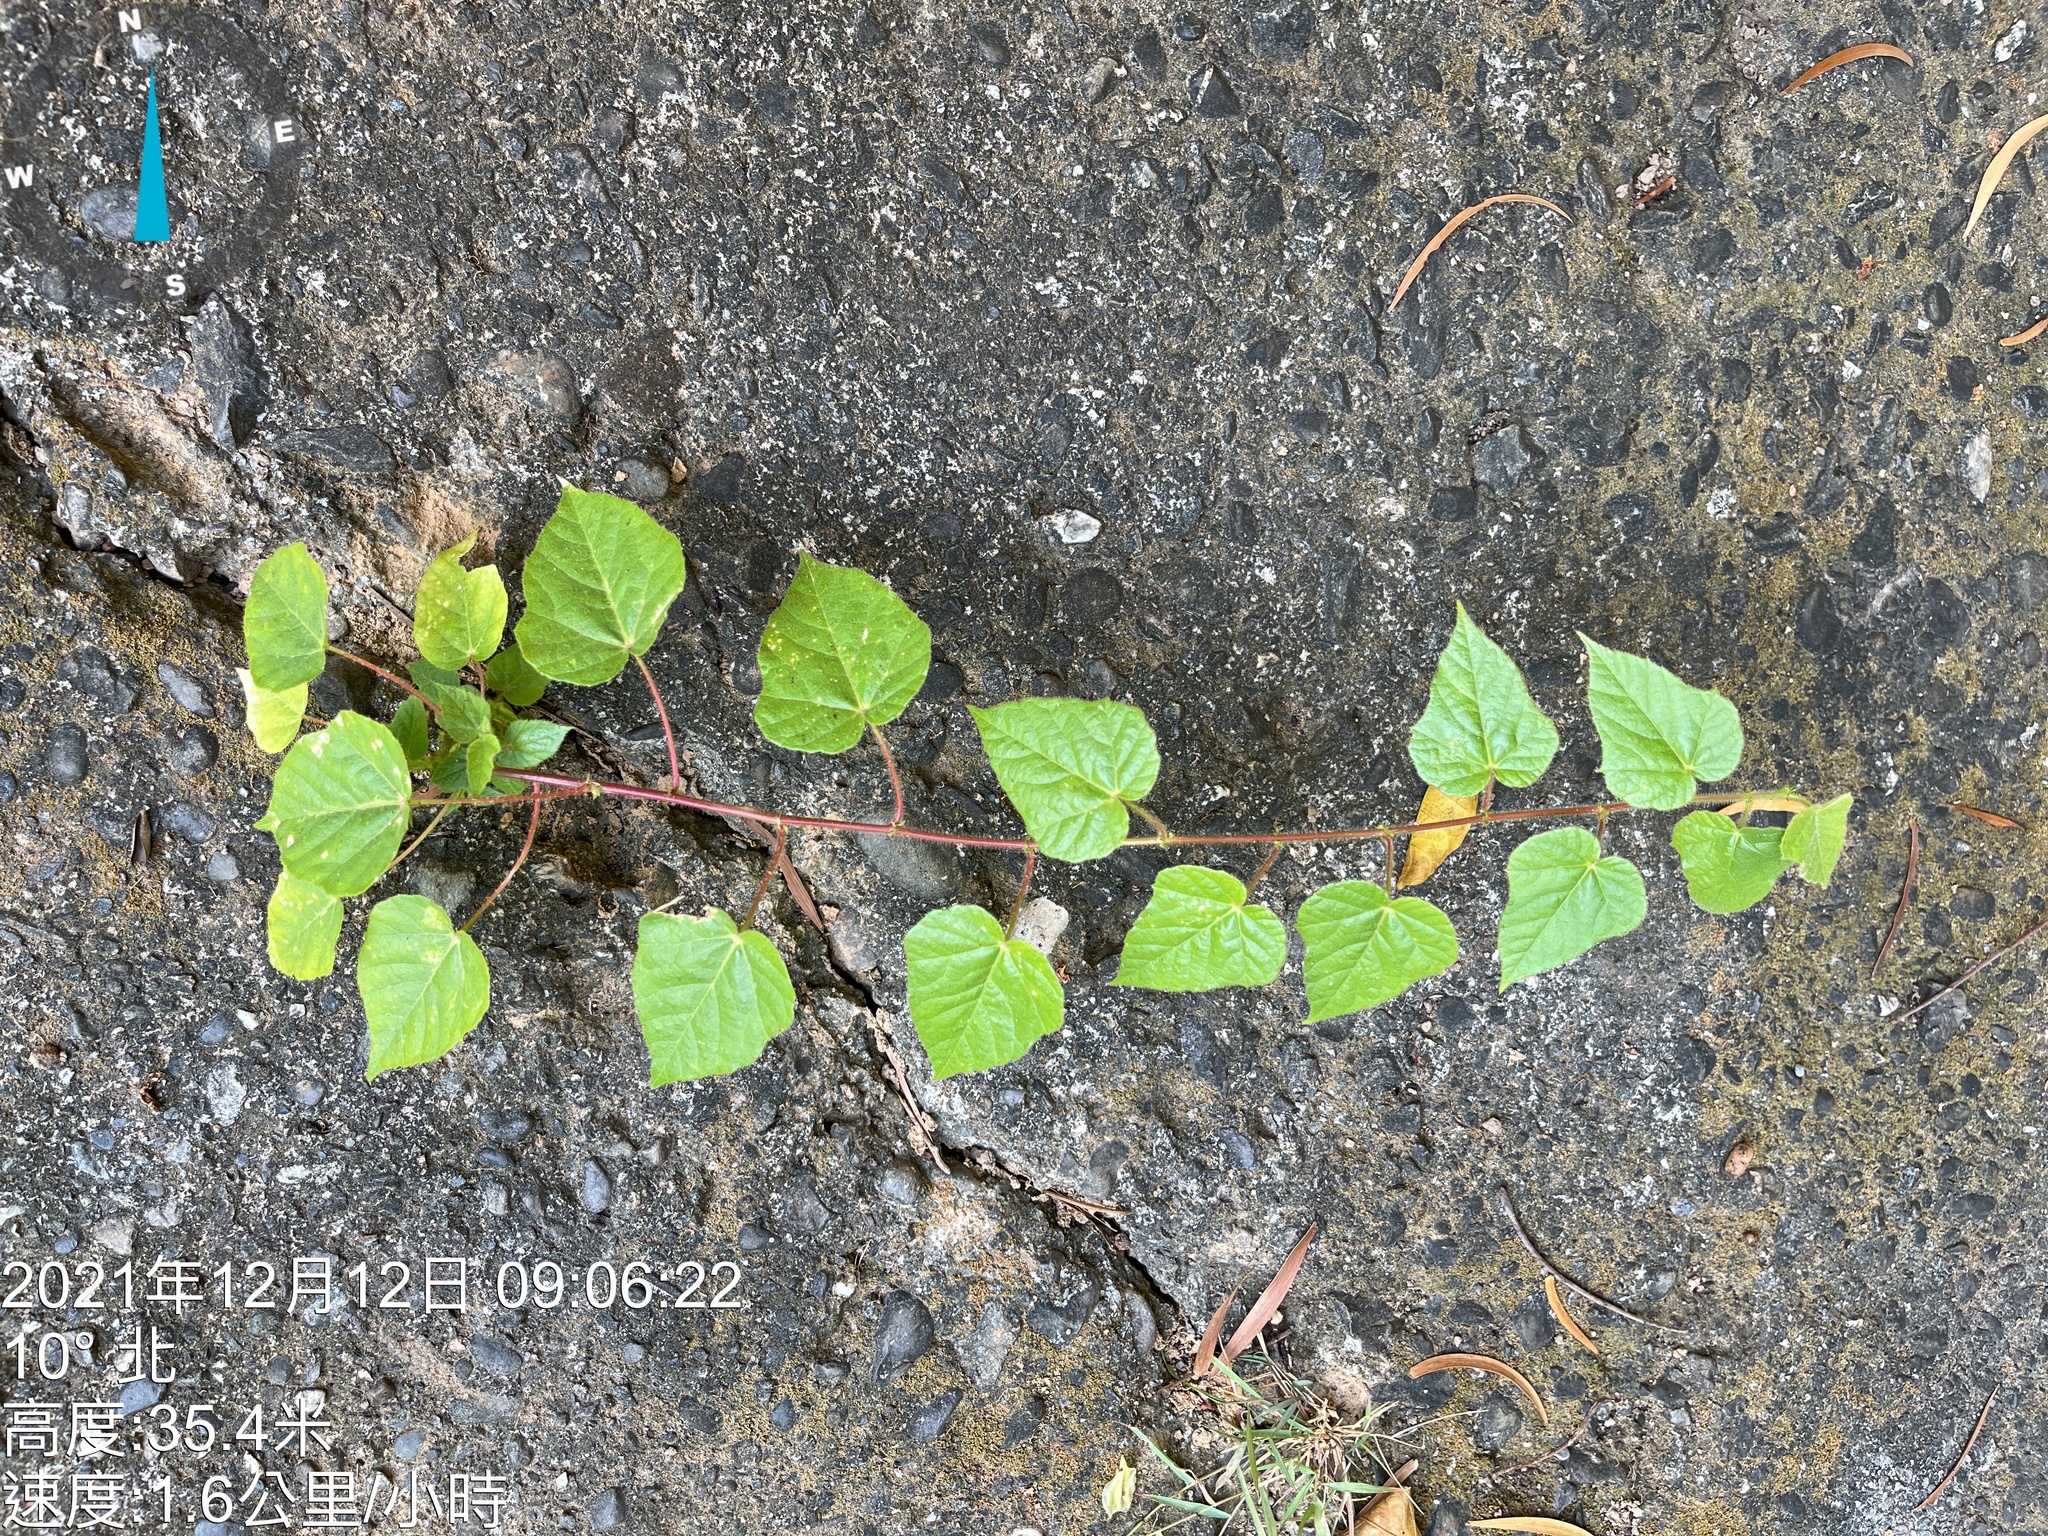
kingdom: Plantae
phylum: Tracheophyta
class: Magnoliopsida
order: Malpighiales
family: Passifloraceae
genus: Passiflora
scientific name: Passiflora vesicaria
